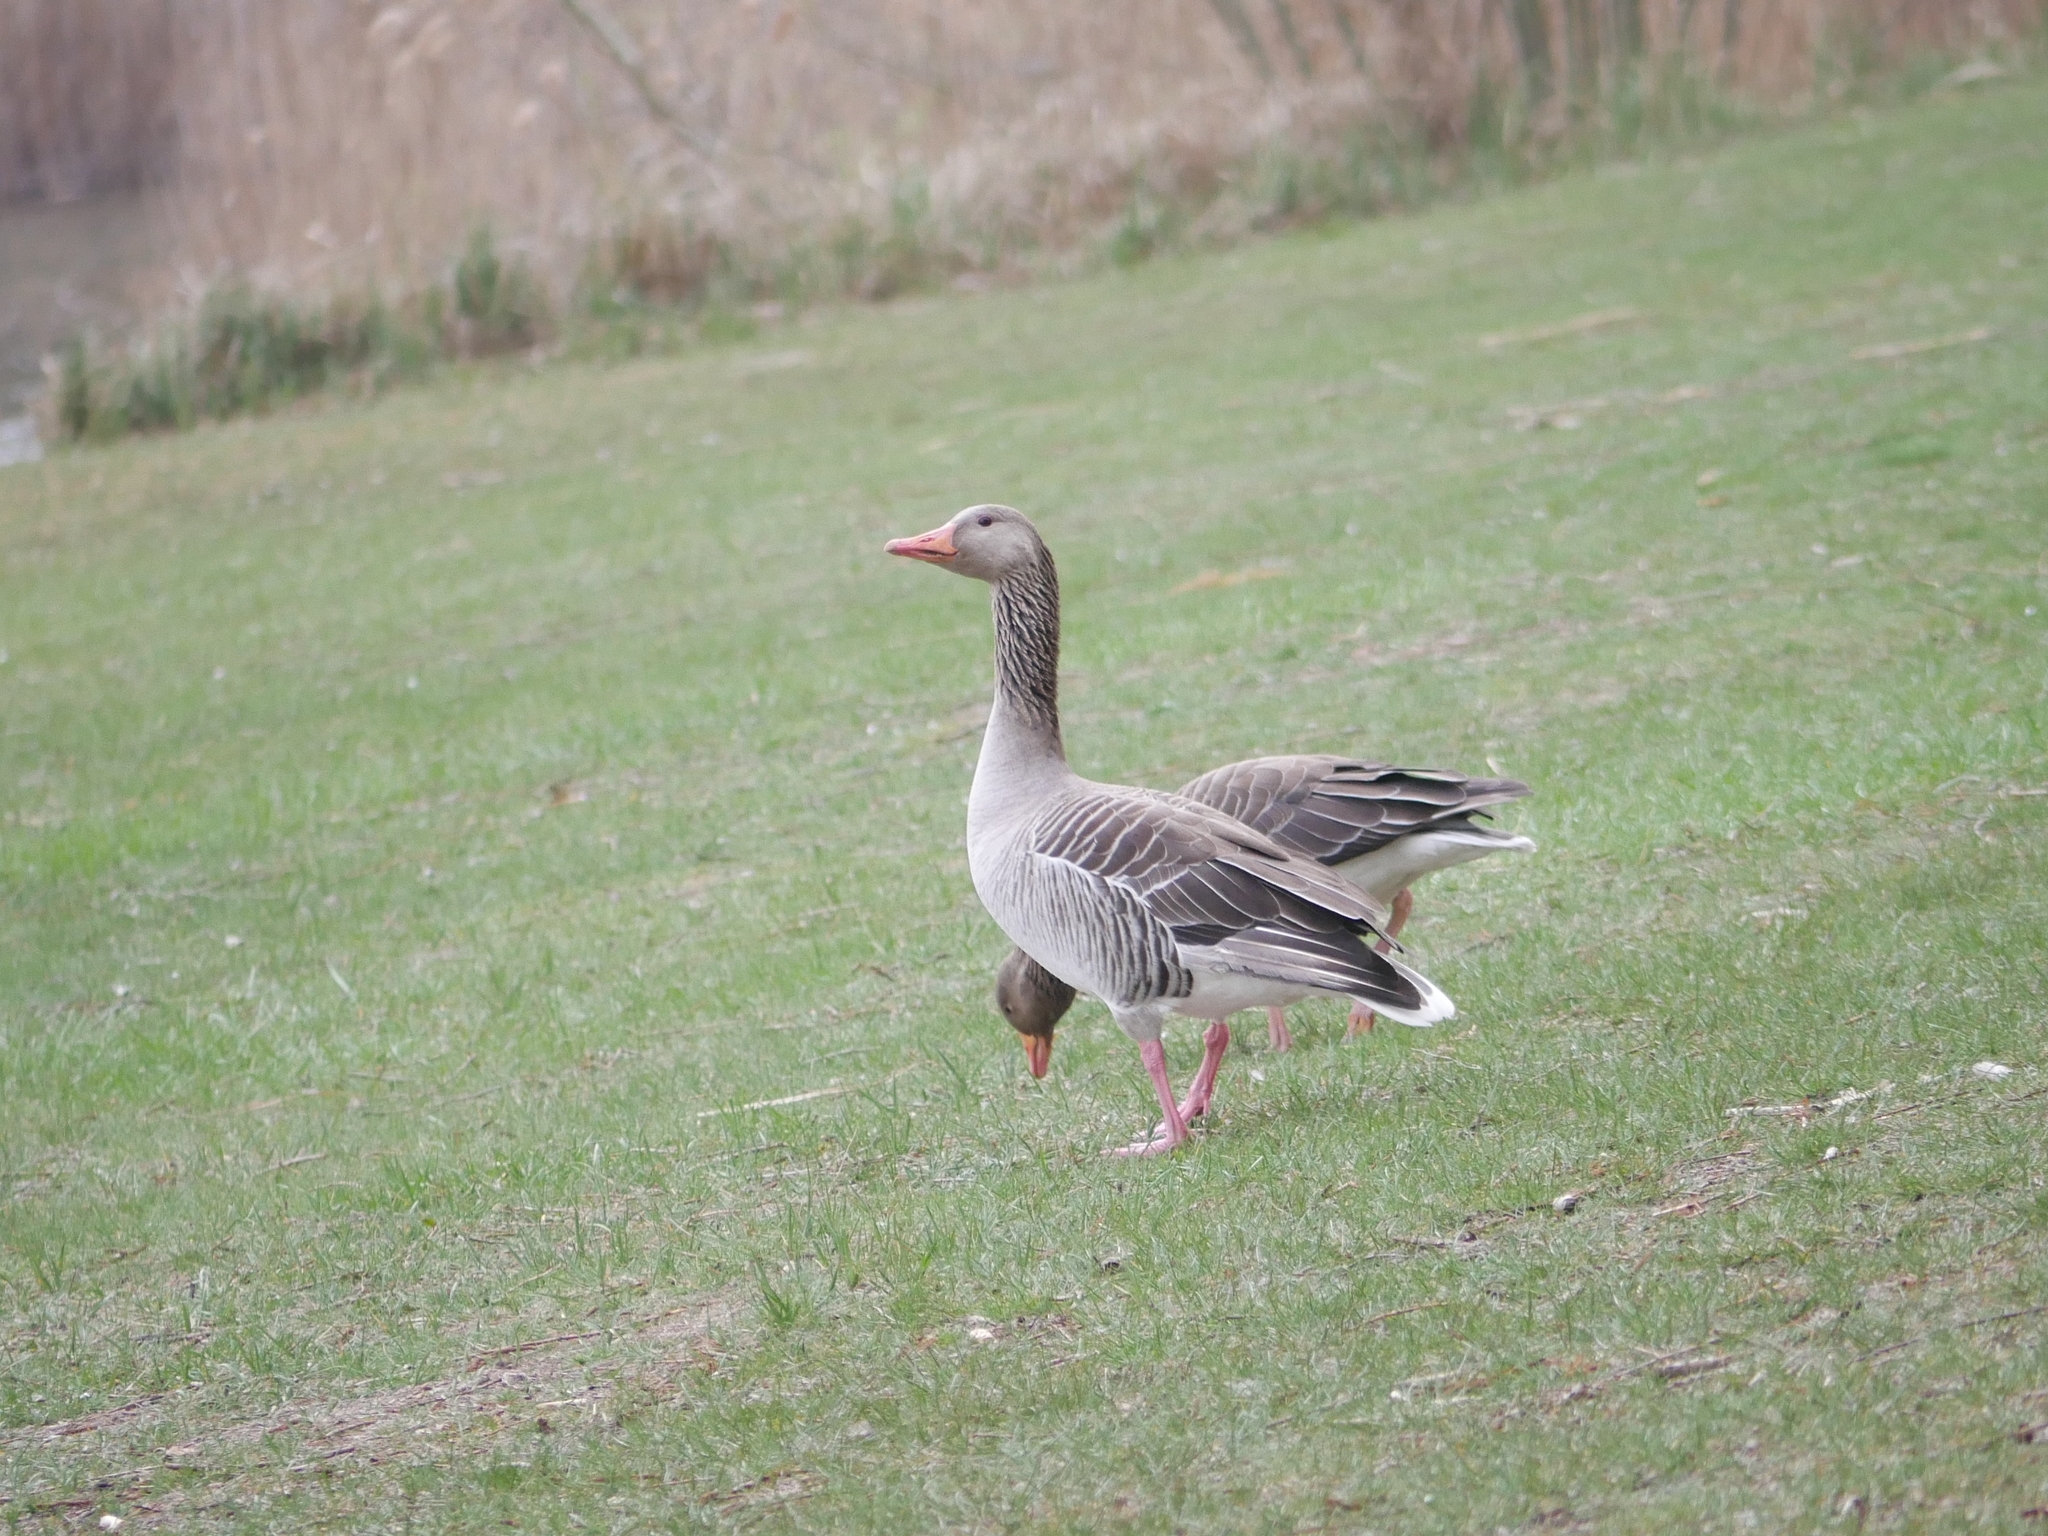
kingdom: Animalia
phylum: Chordata
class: Aves
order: Anseriformes
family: Anatidae
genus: Anser
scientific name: Anser anser
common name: Greylag goose
